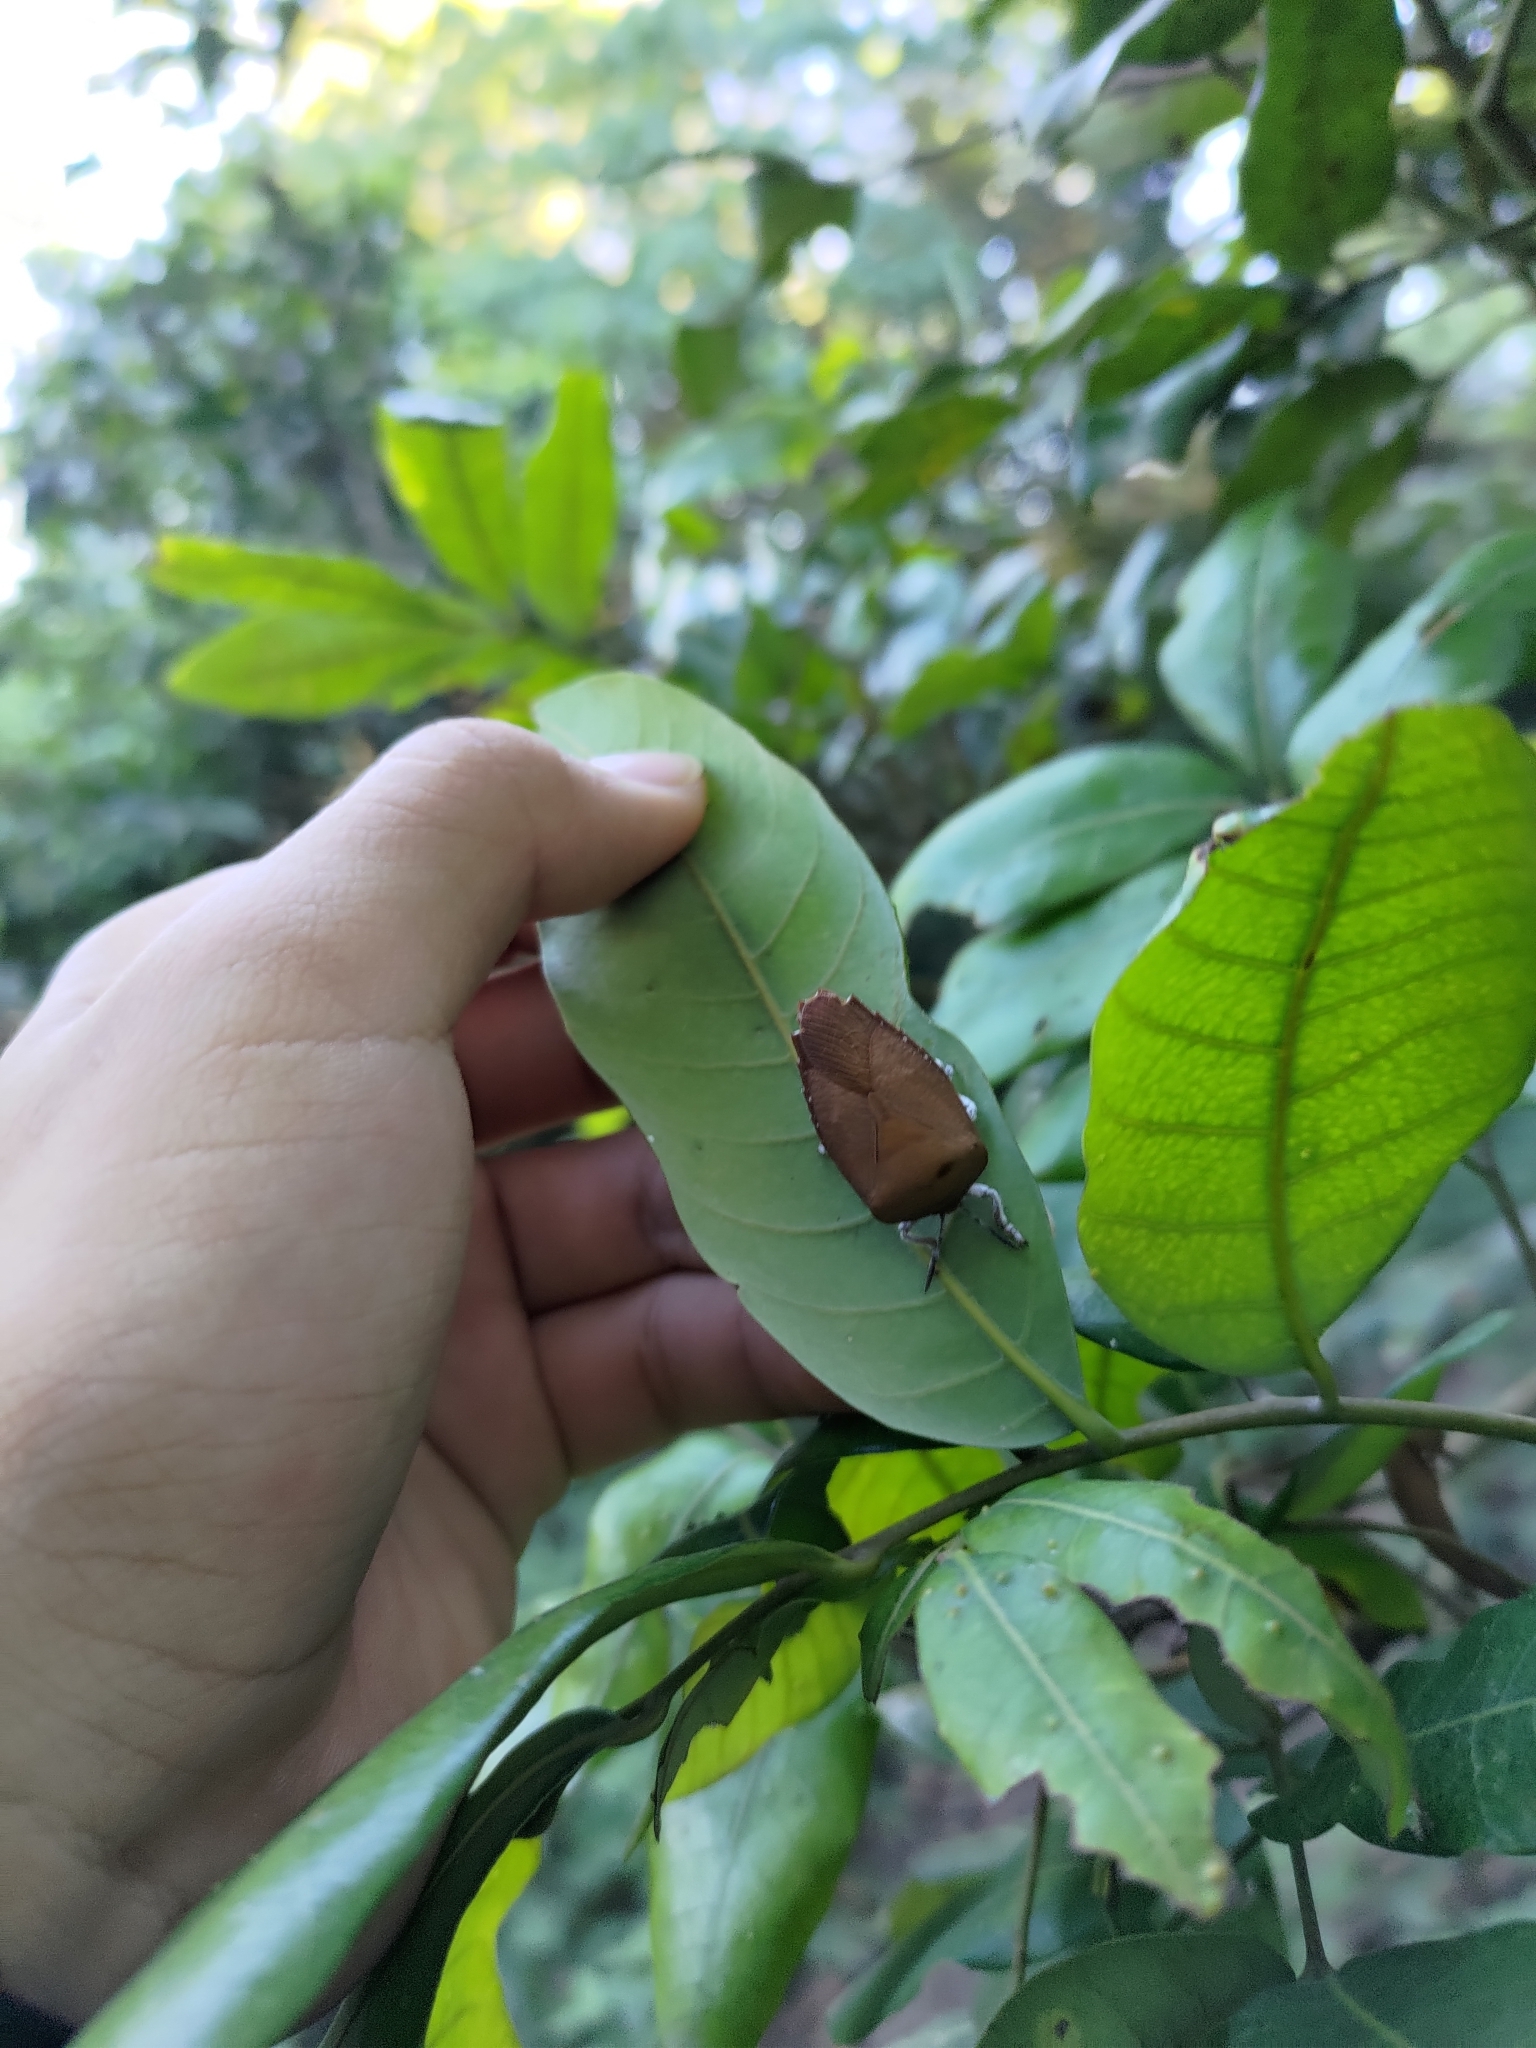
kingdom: Animalia
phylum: Arthropoda
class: Insecta
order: Hemiptera
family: Tessaratomidae
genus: Tessaratoma
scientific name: Tessaratoma papillosa
